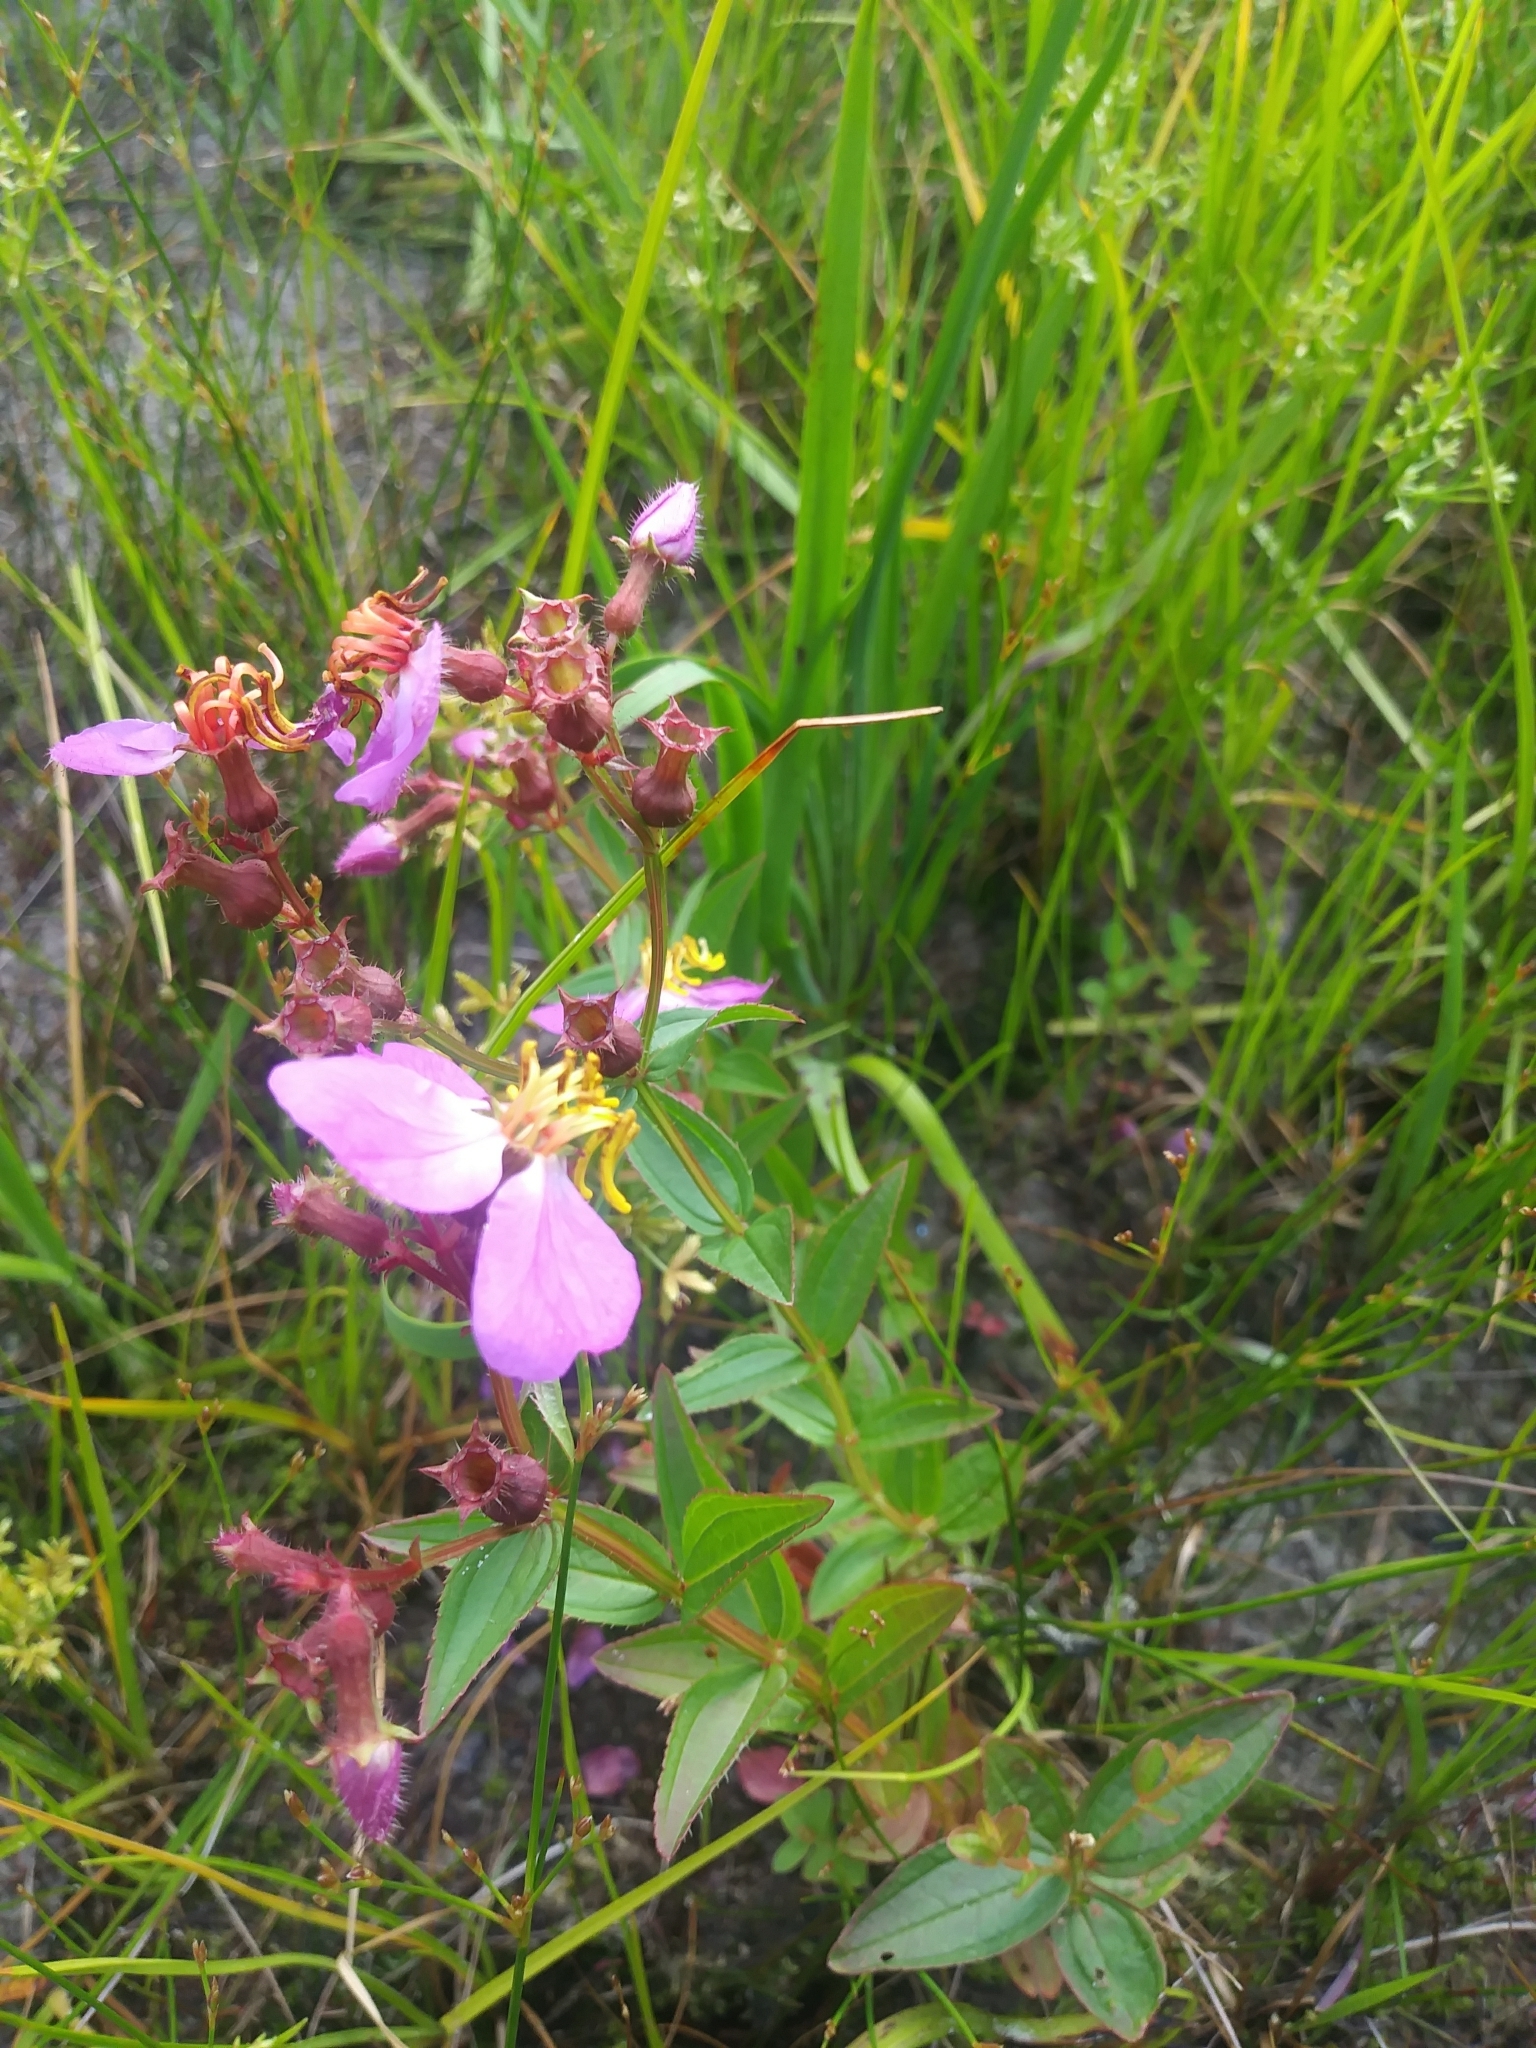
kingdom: Plantae
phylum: Tracheophyta
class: Magnoliopsida
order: Myrtales
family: Melastomataceae
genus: Rhexia
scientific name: Rhexia virginica
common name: Common meadow beauty
